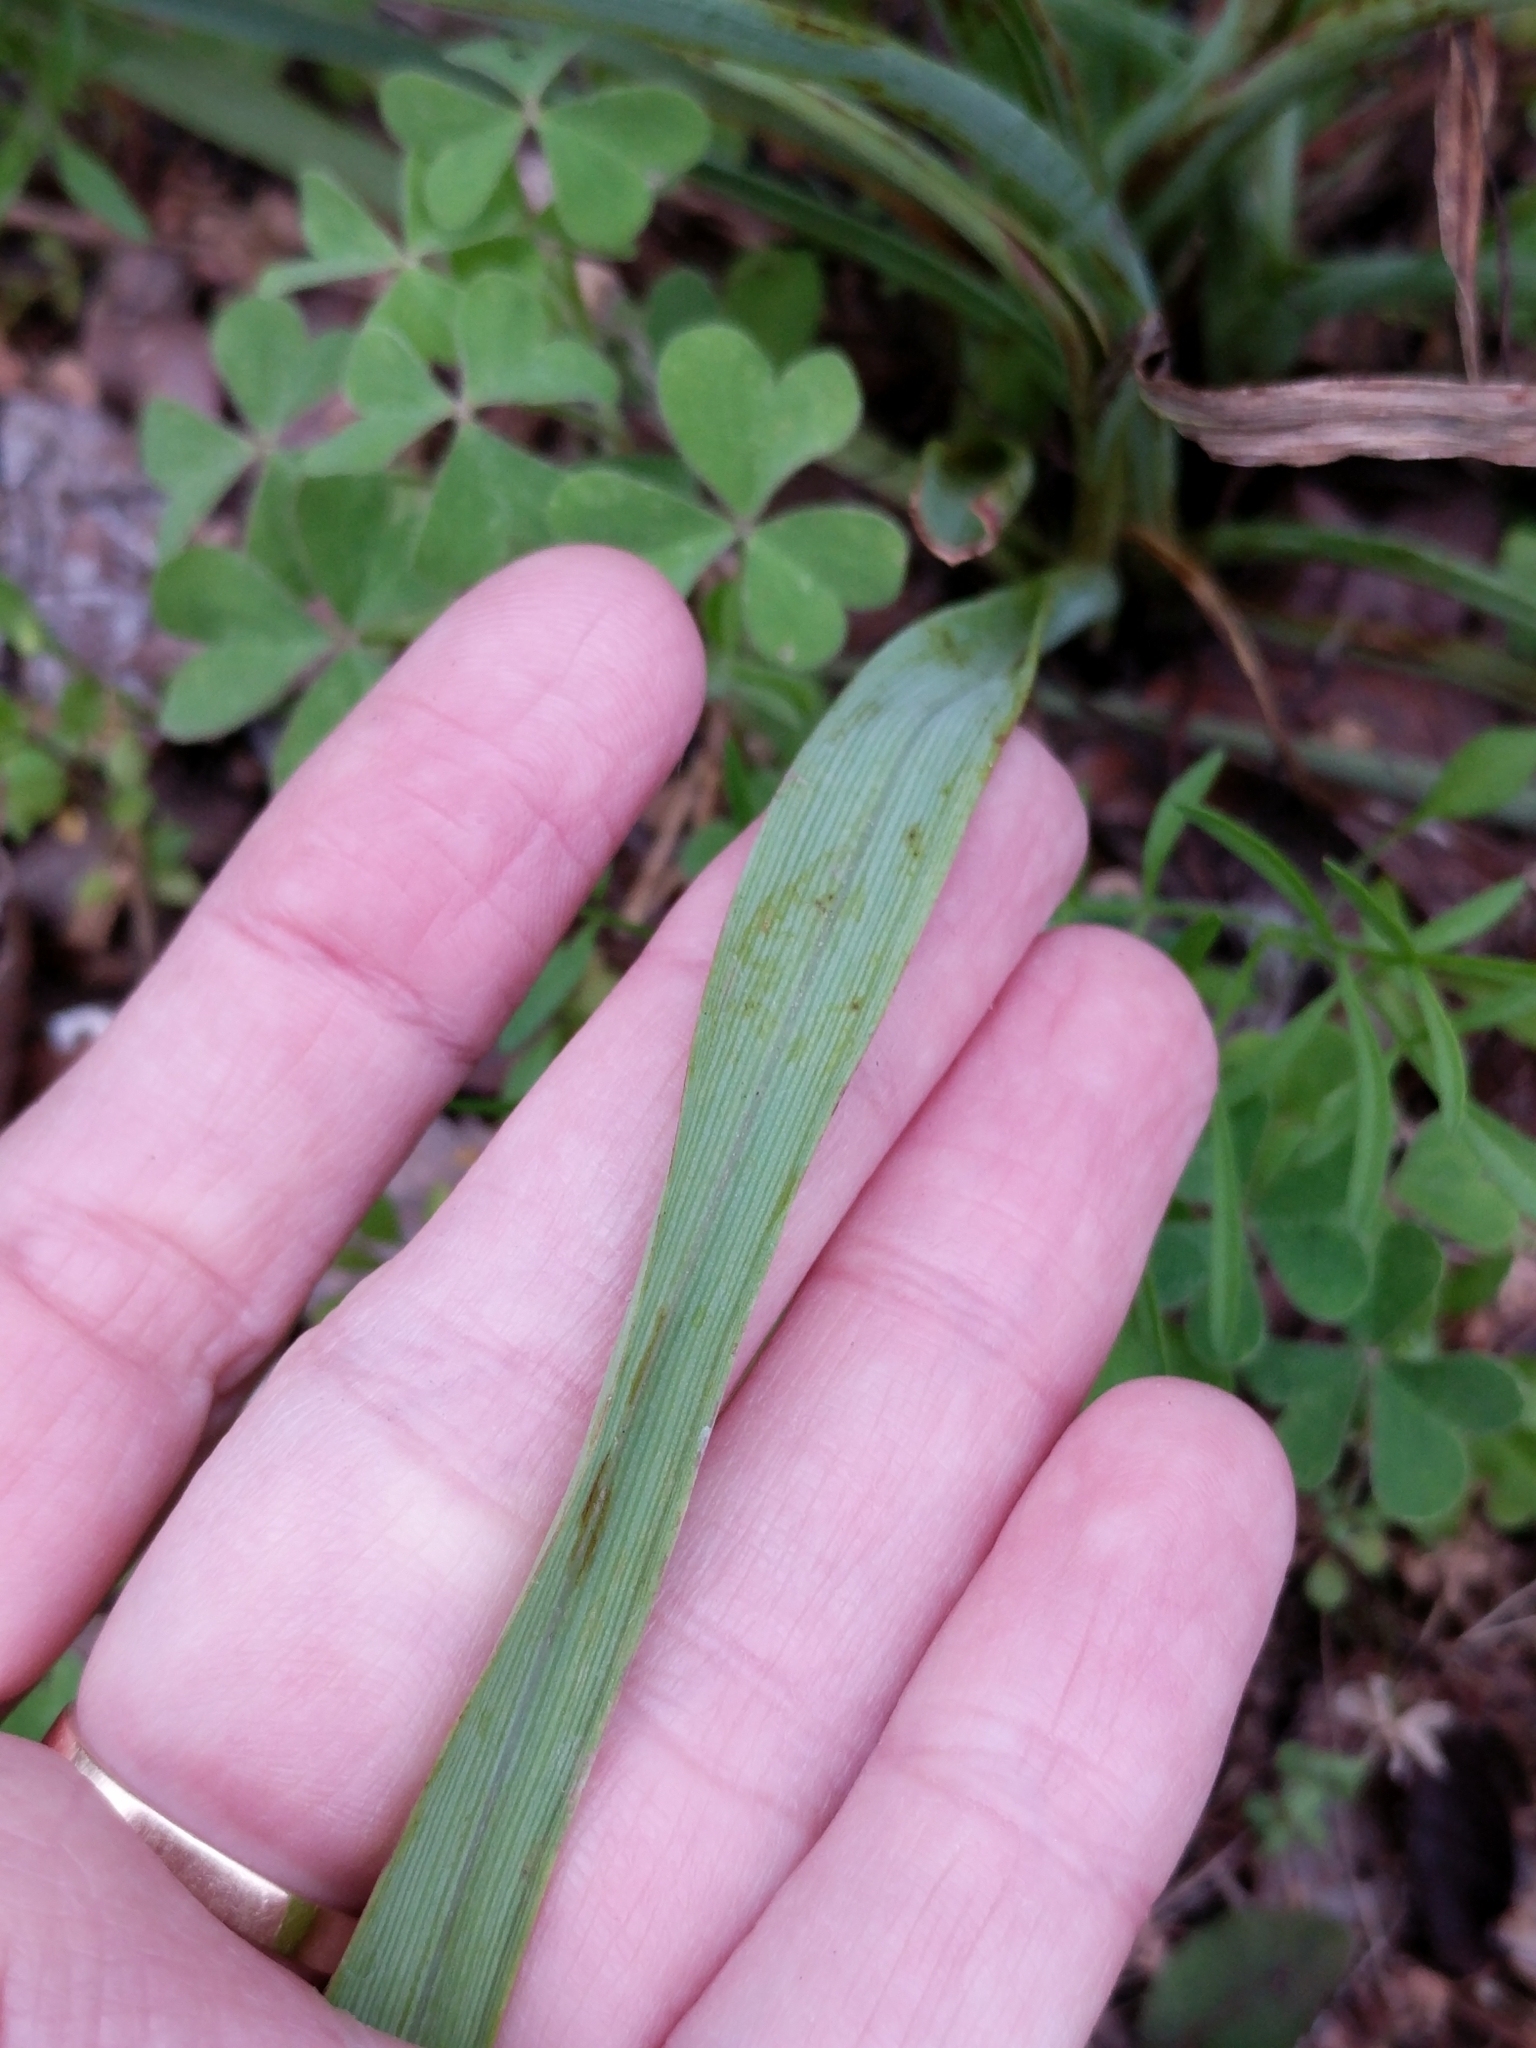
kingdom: Plantae
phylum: Tracheophyta
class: Liliopsida
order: Commelinales
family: Commelinaceae
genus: Tradescantia
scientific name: Tradescantia occidentalis
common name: Prairie spiderwort
